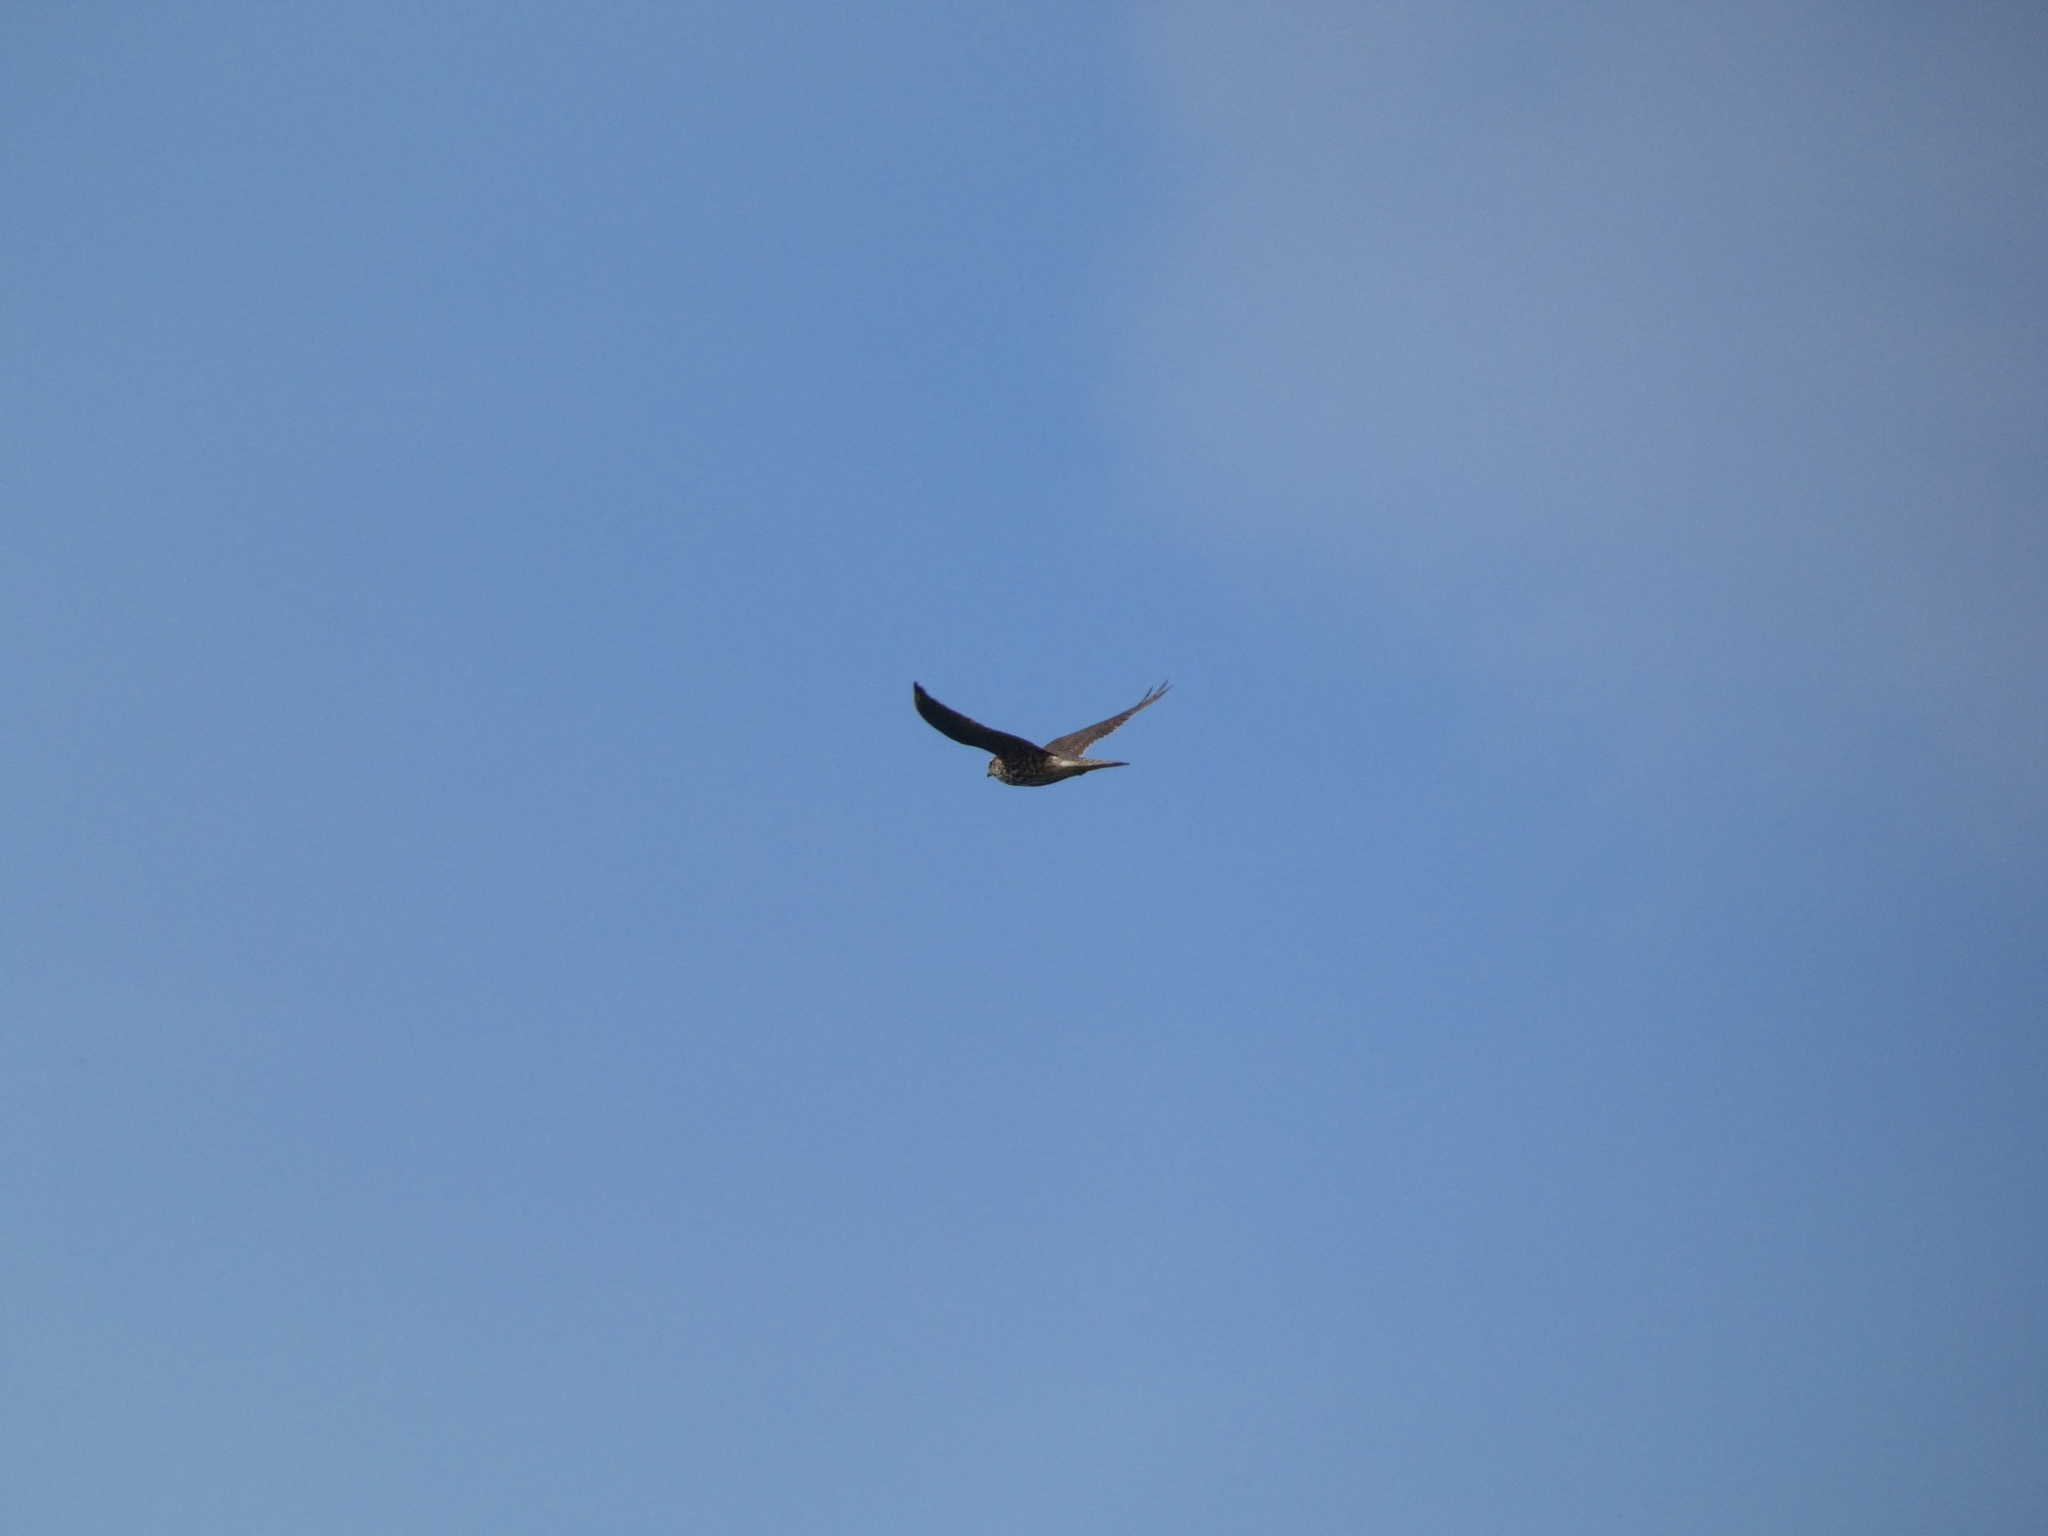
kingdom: Animalia
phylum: Chordata
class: Aves
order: Falconiformes
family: Falconidae
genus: Falco
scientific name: Falco columbarius
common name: Merlin
